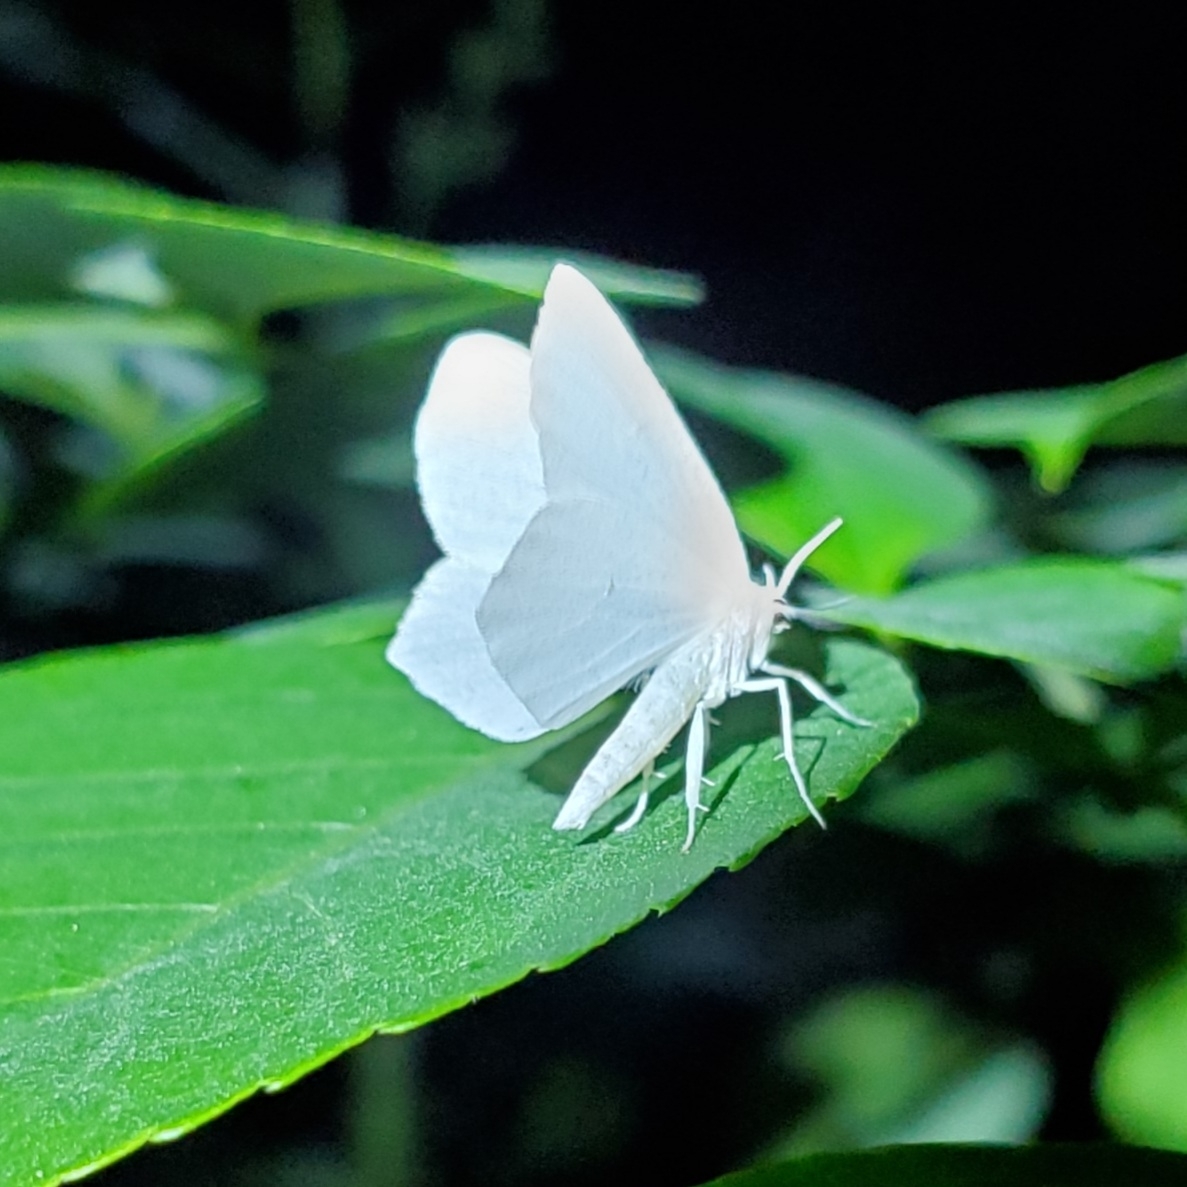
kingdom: Animalia
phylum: Arthropoda
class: Insecta
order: Lepidoptera
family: Geometridae
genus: Eugonobapta
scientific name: Eugonobapta nivosaria
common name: Snowy geometer
